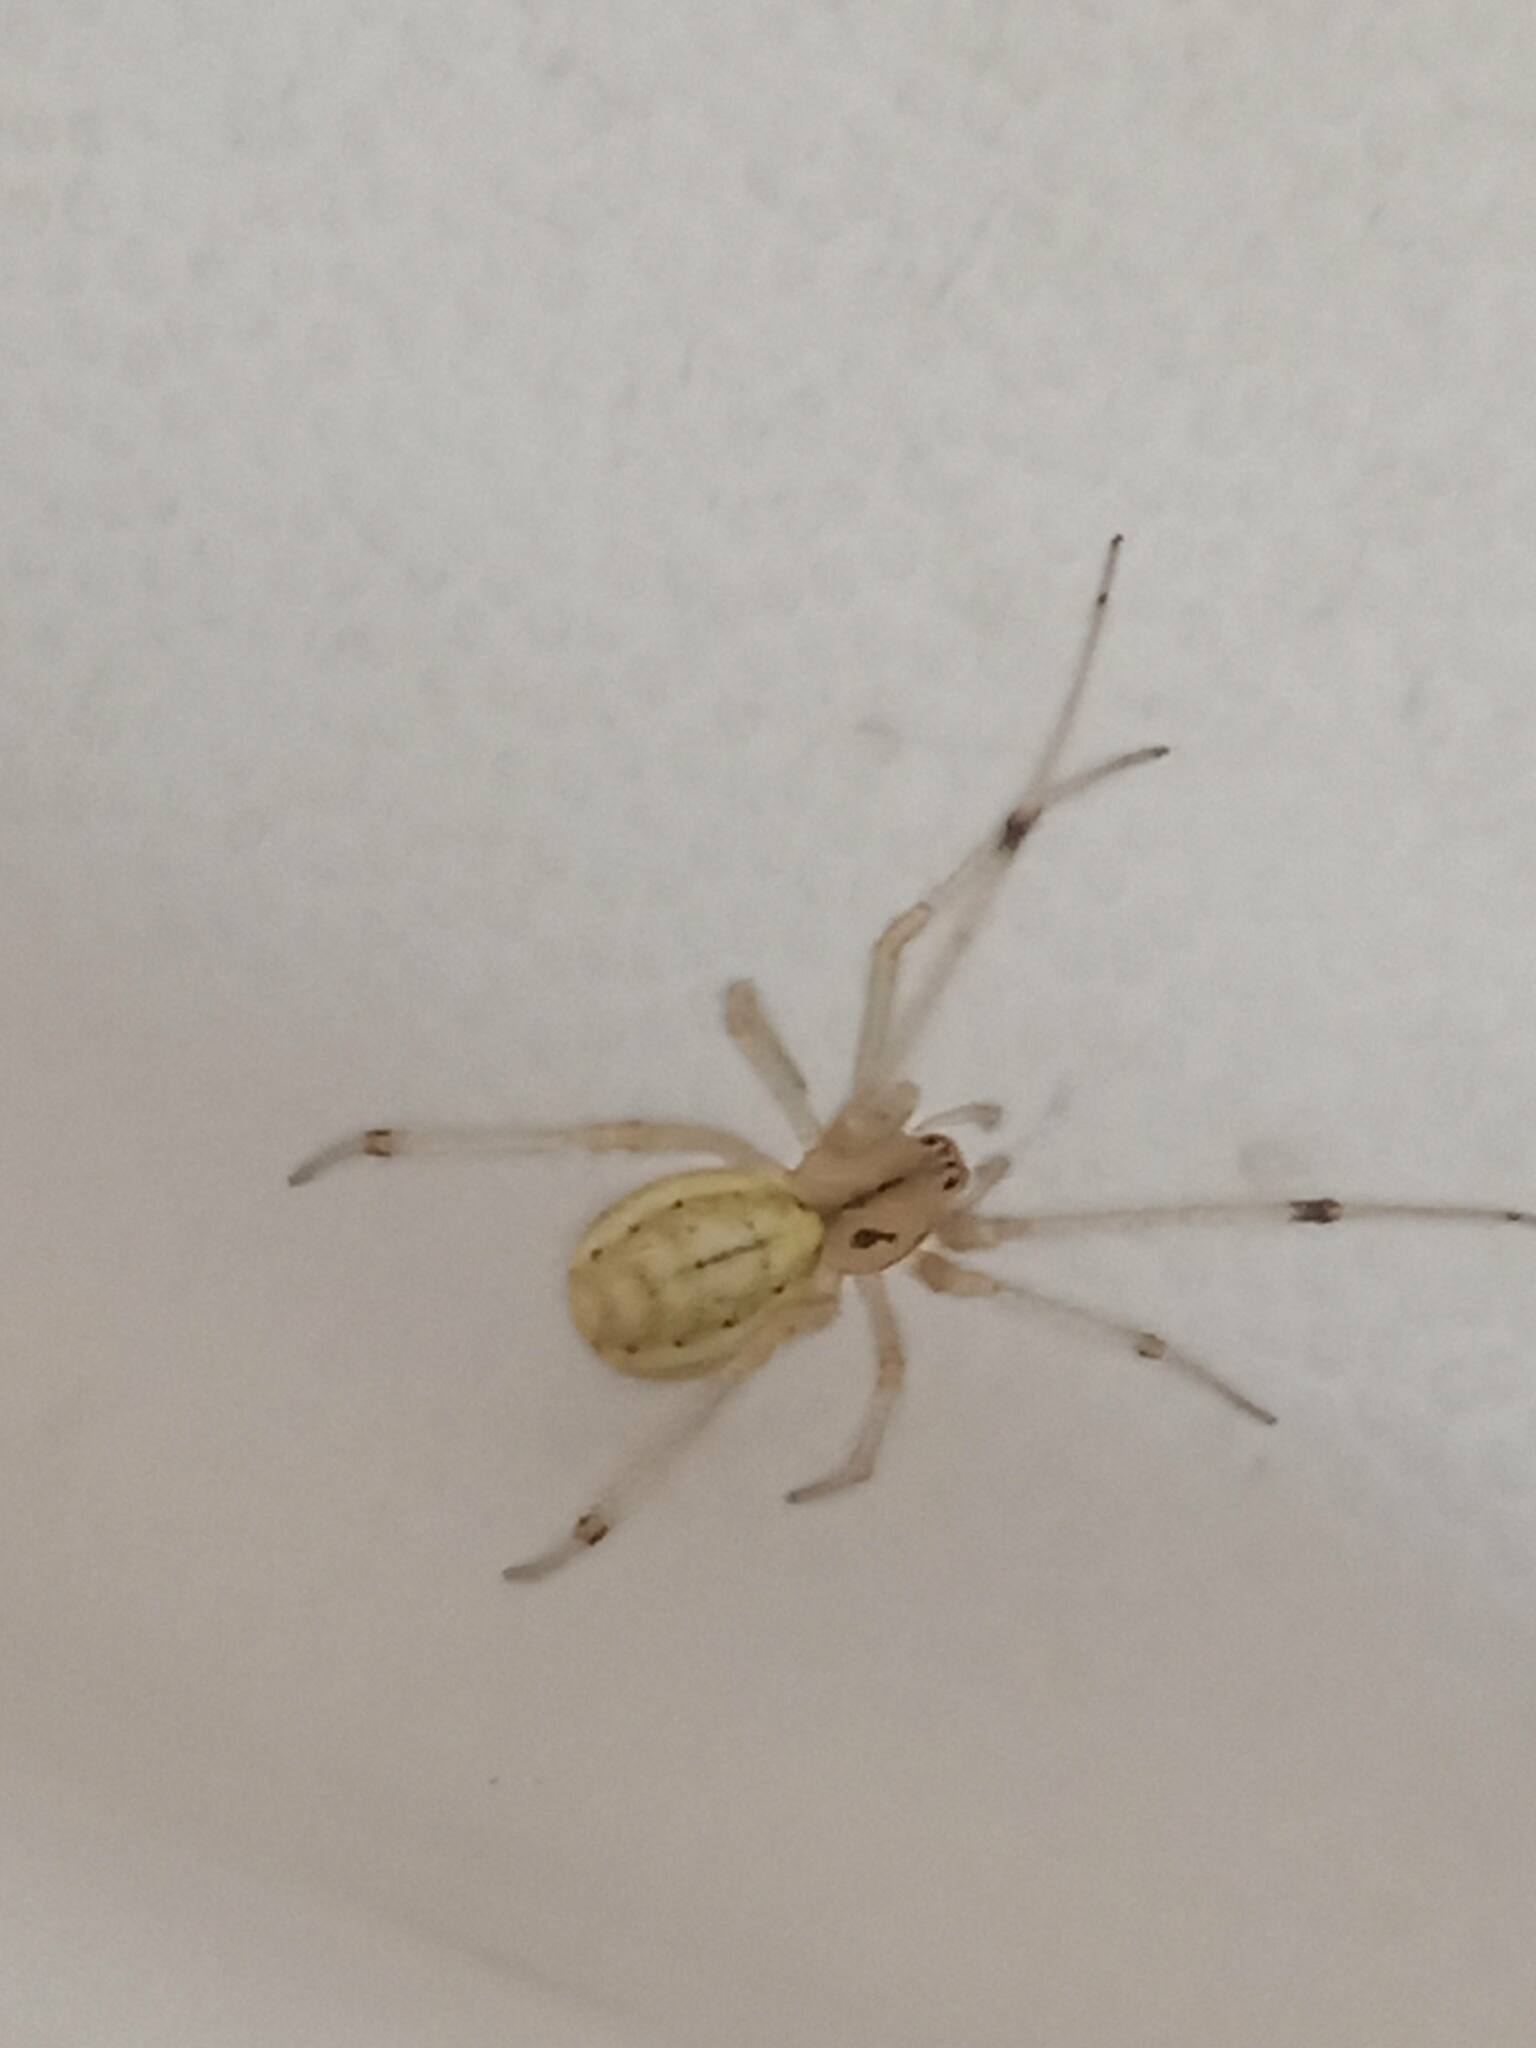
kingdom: Animalia
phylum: Arthropoda
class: Arachnida
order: Araneae
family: Theridiidae
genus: Enoplognatha
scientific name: Enoplognatha ovata
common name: Common candy-striped spider
